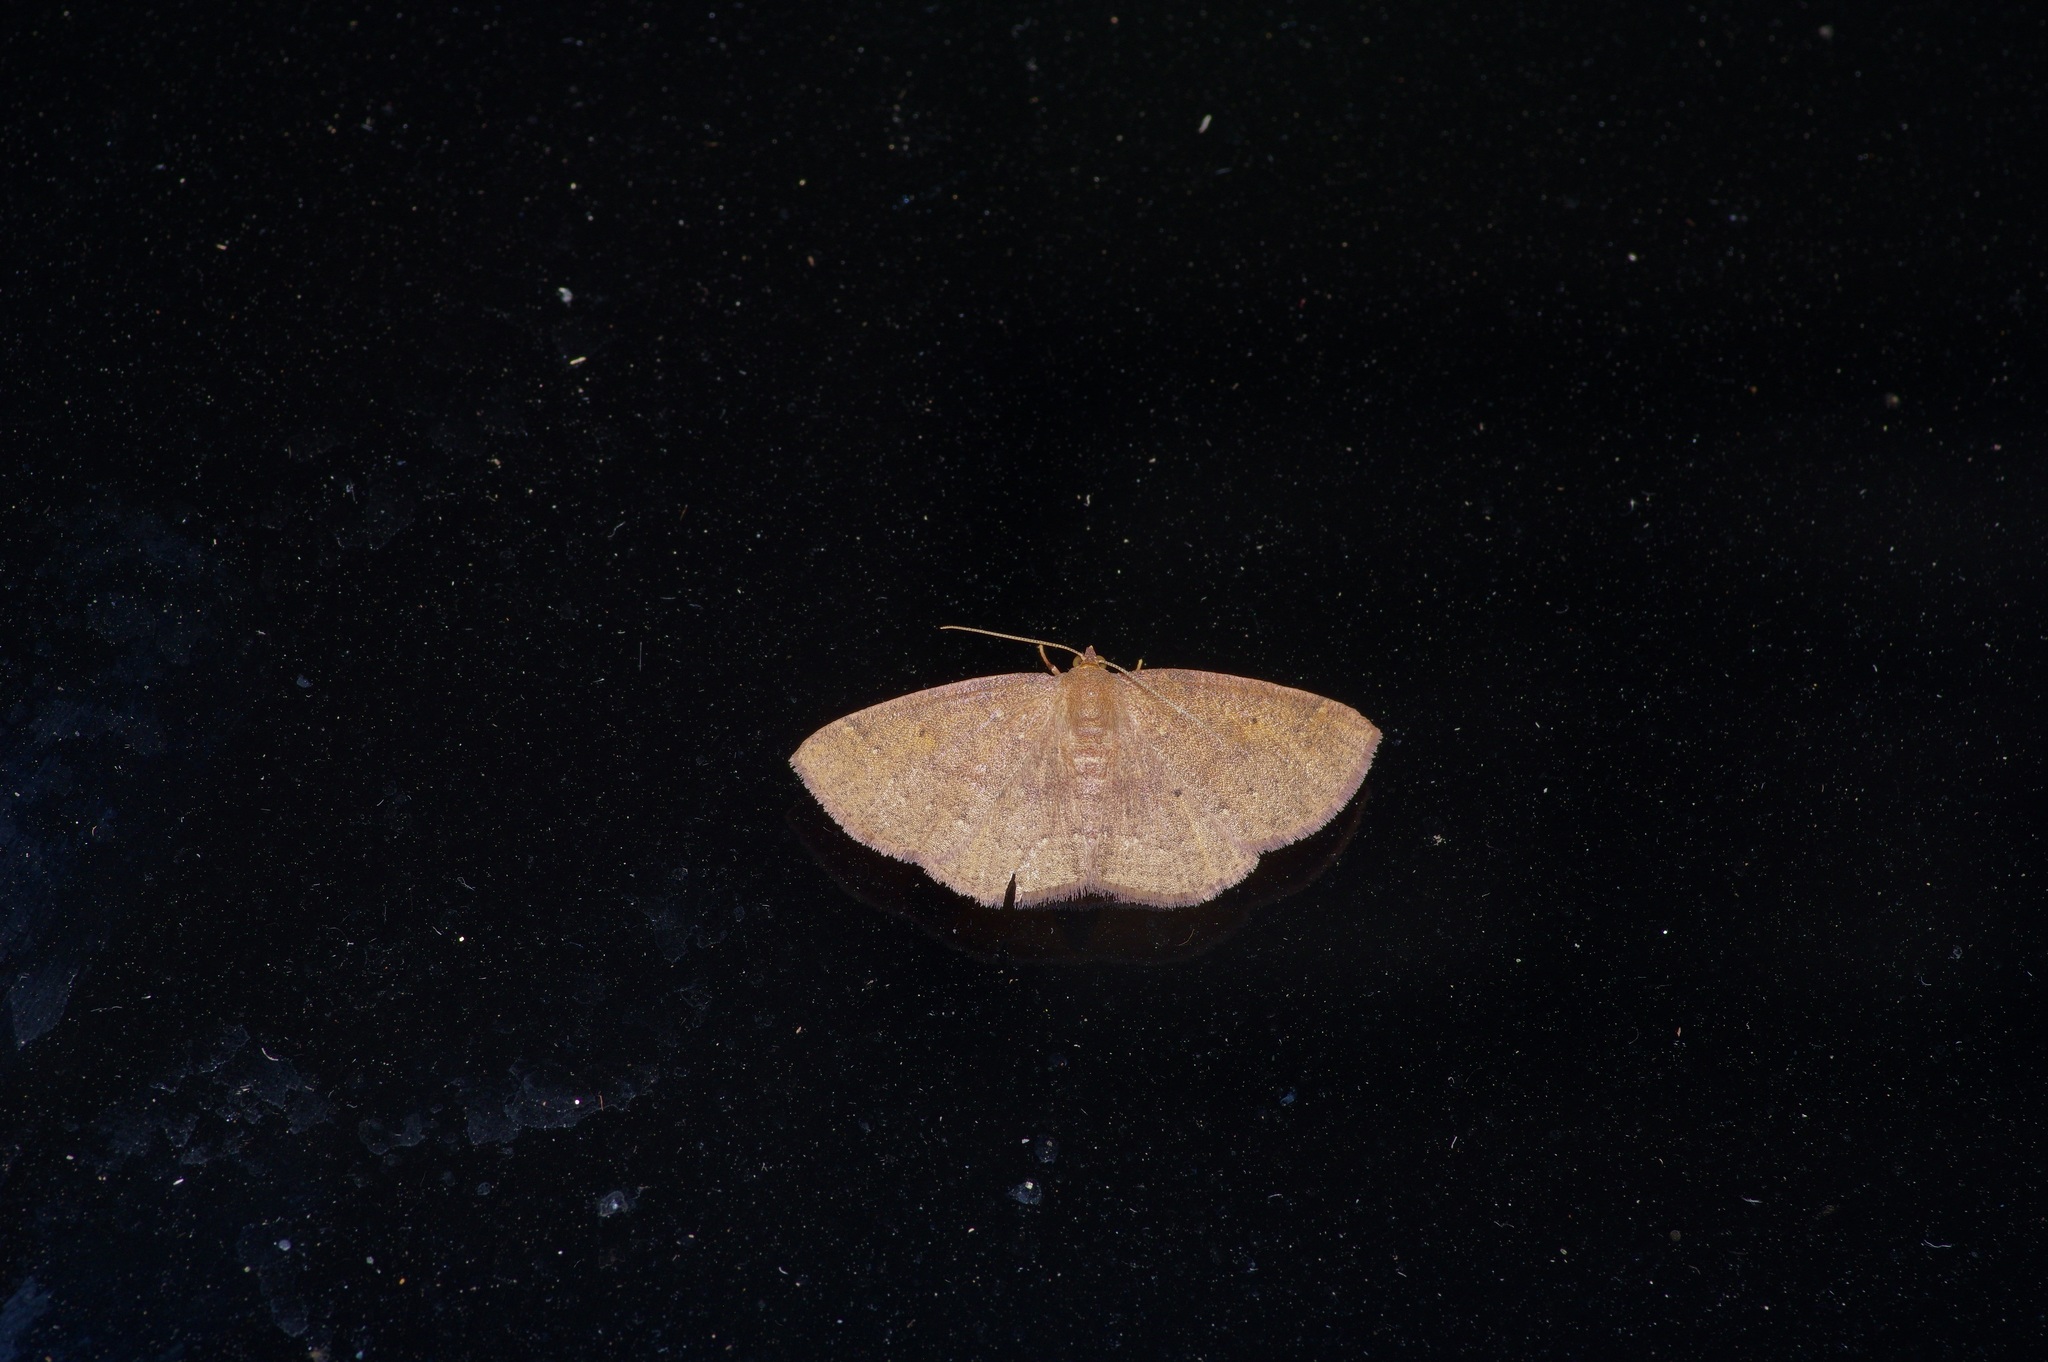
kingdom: Animalia
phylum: Arthropoda
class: Insecta
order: Lepidoptera
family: Geometridae
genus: Ilexia
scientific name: Ilexia intractata
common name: Black-dotted ruddy moth
